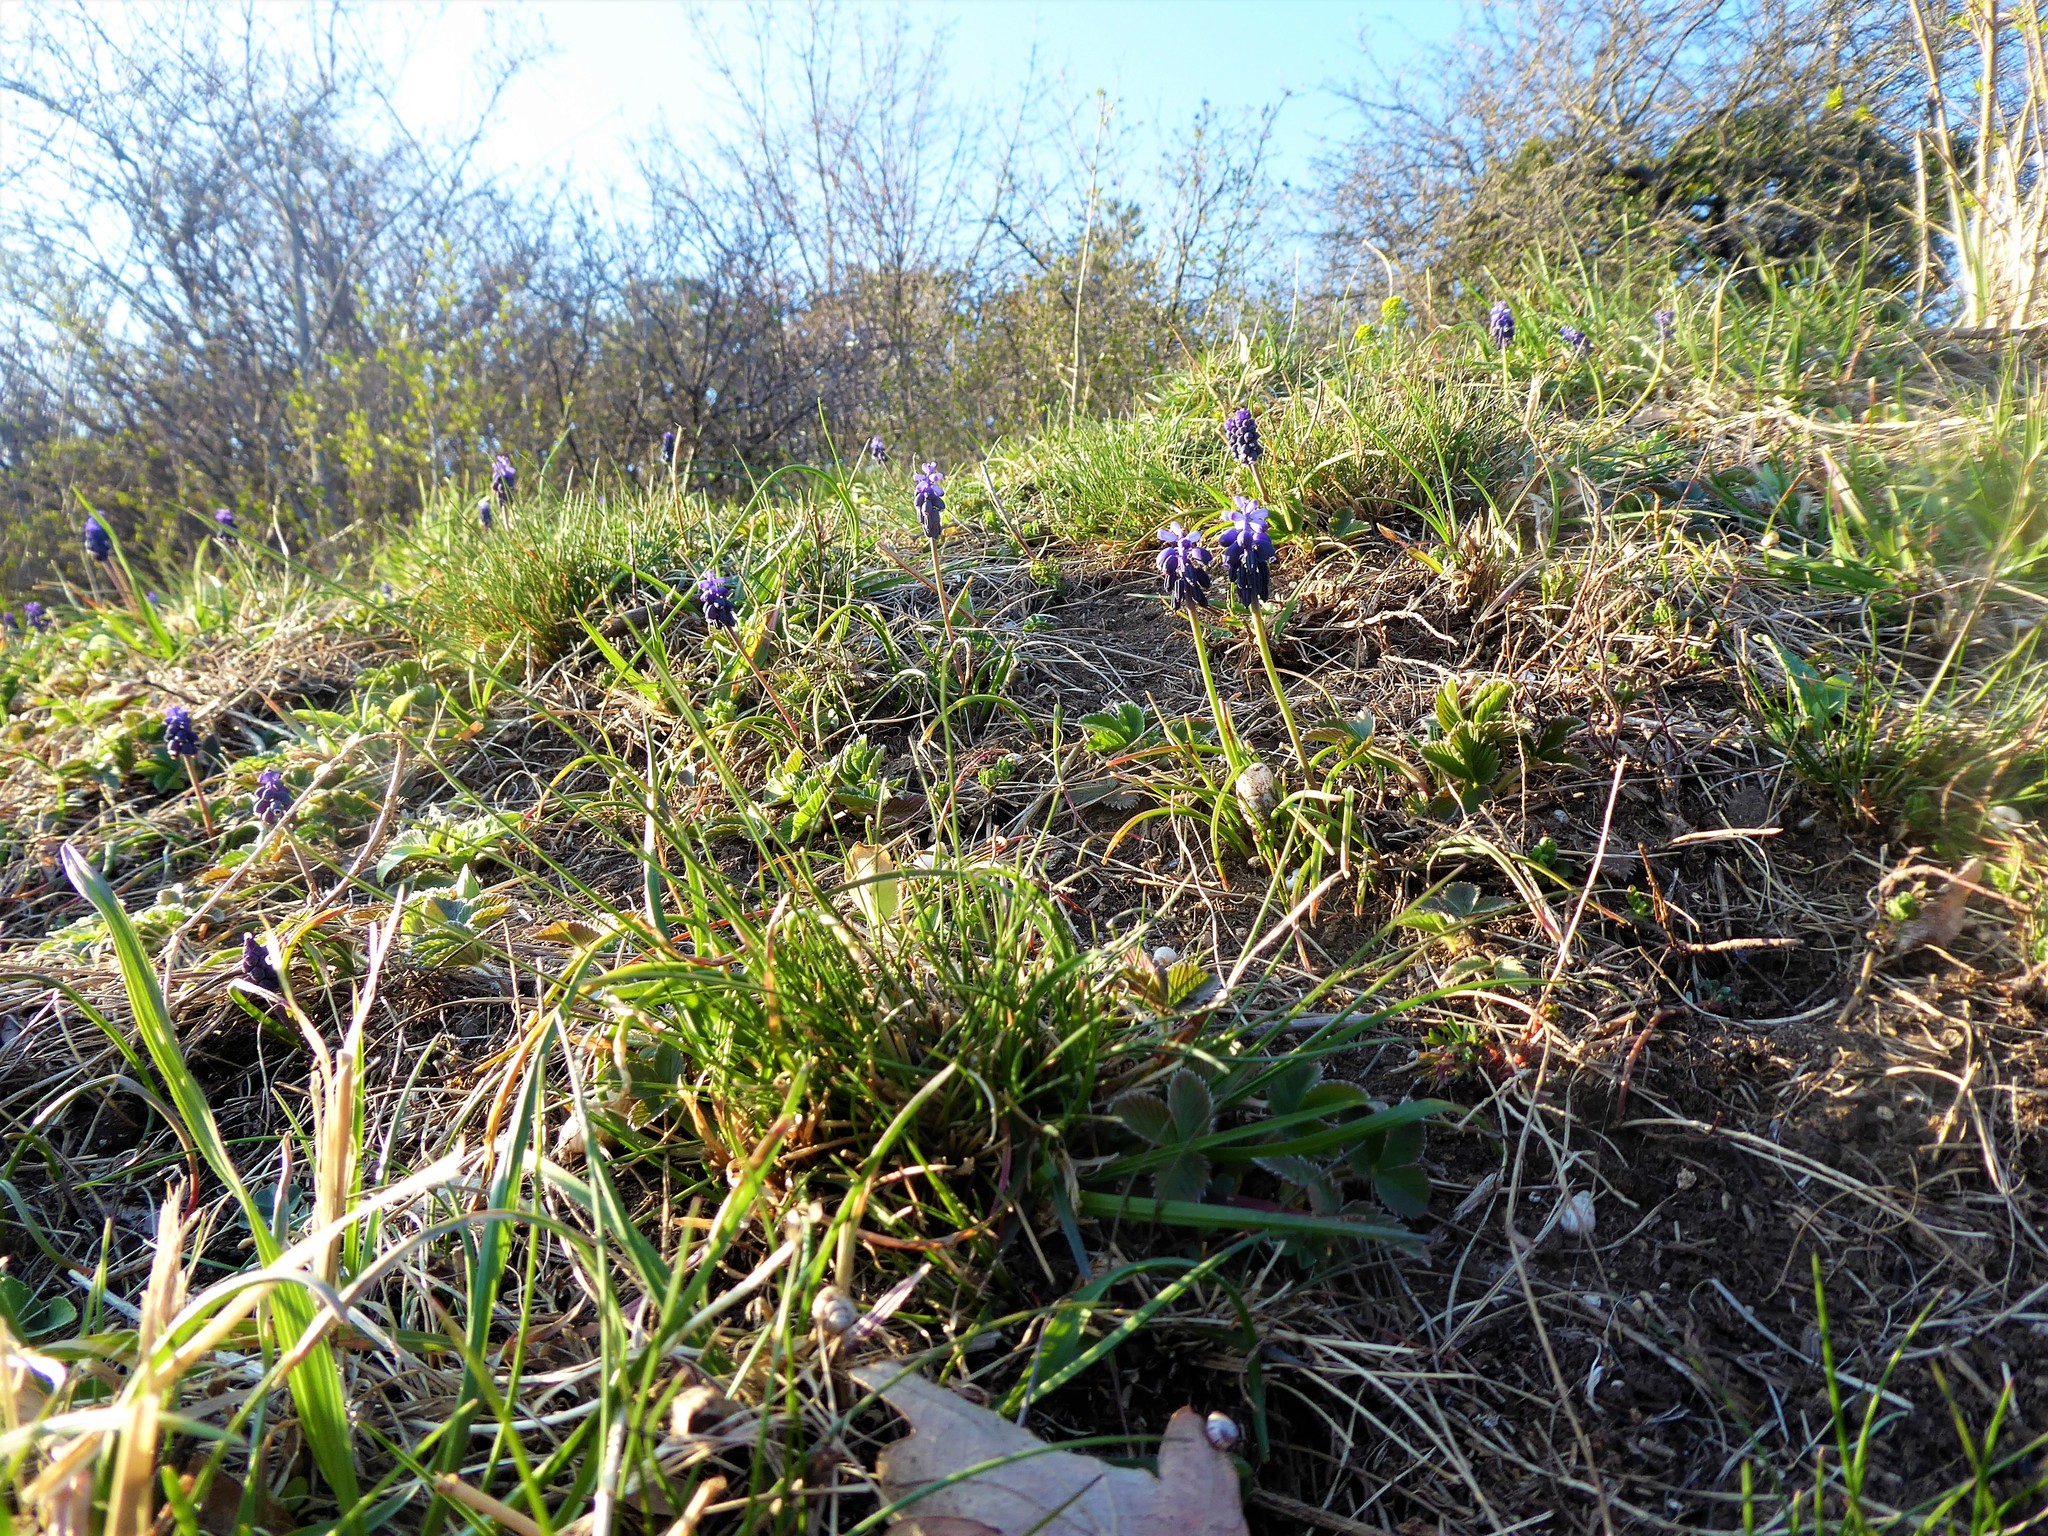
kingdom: Plantae
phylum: Tracheophyta
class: Liliopsida
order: Asparagales
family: Asparagaceae
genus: Muscari
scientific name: Muscari neglectum
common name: Grape-hyacinth
